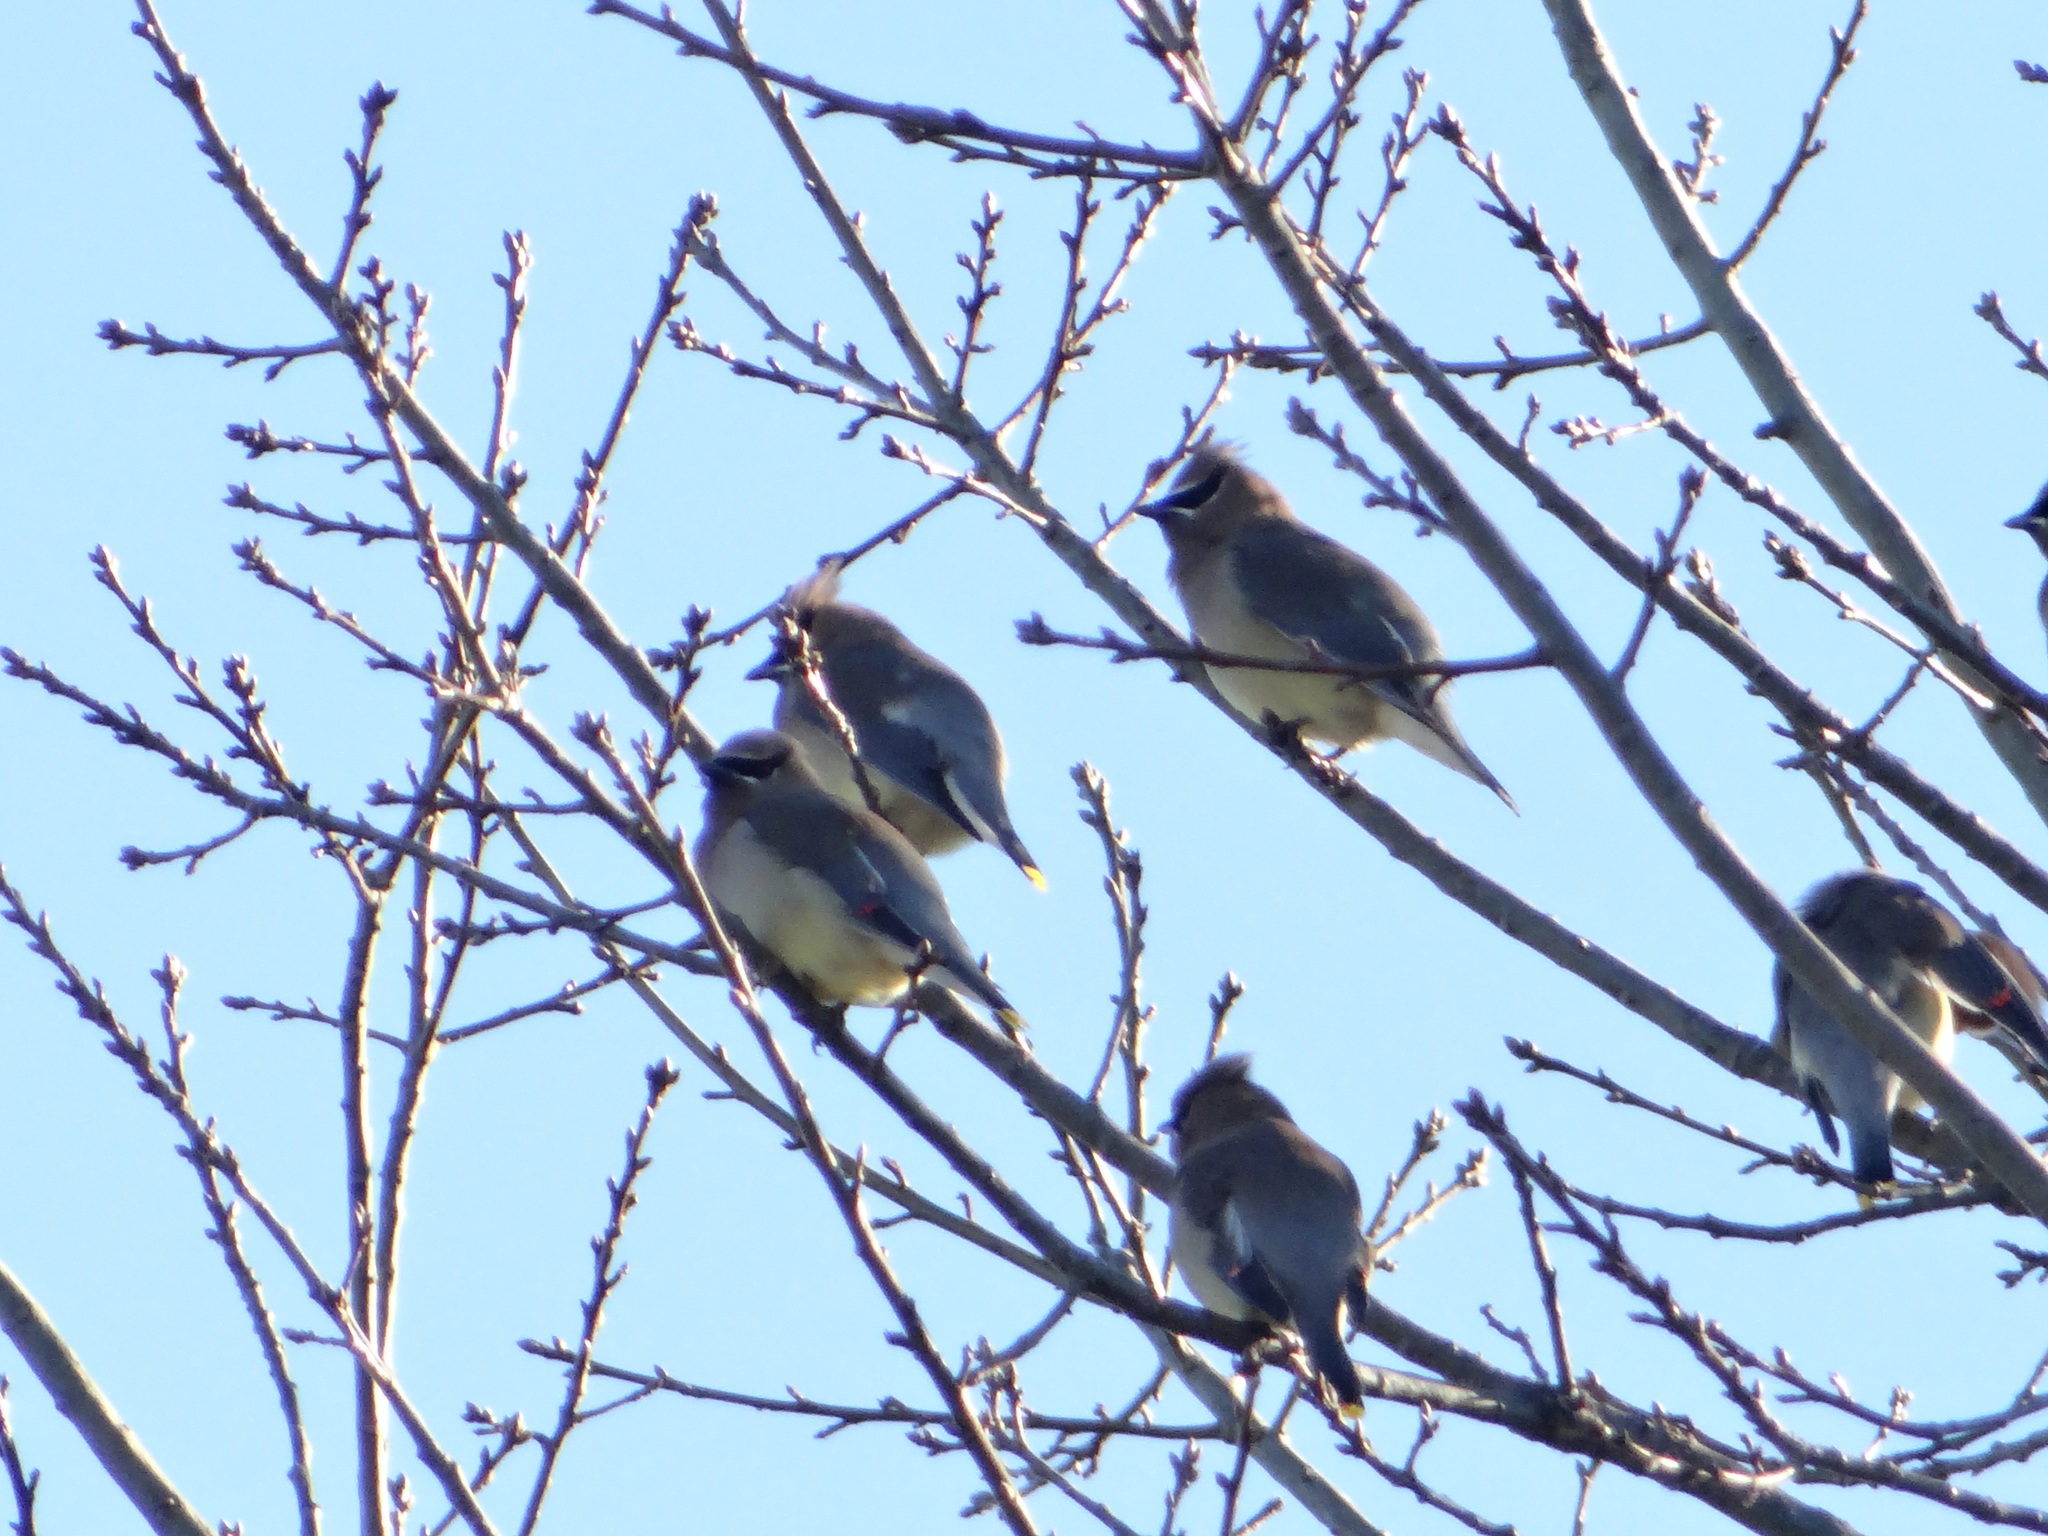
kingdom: Animalia
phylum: Chordata
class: Aves
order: Passeriformes
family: Bombycillidae
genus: Bombycilla
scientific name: Bombycilla cedrorum
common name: Cedar waxwing
